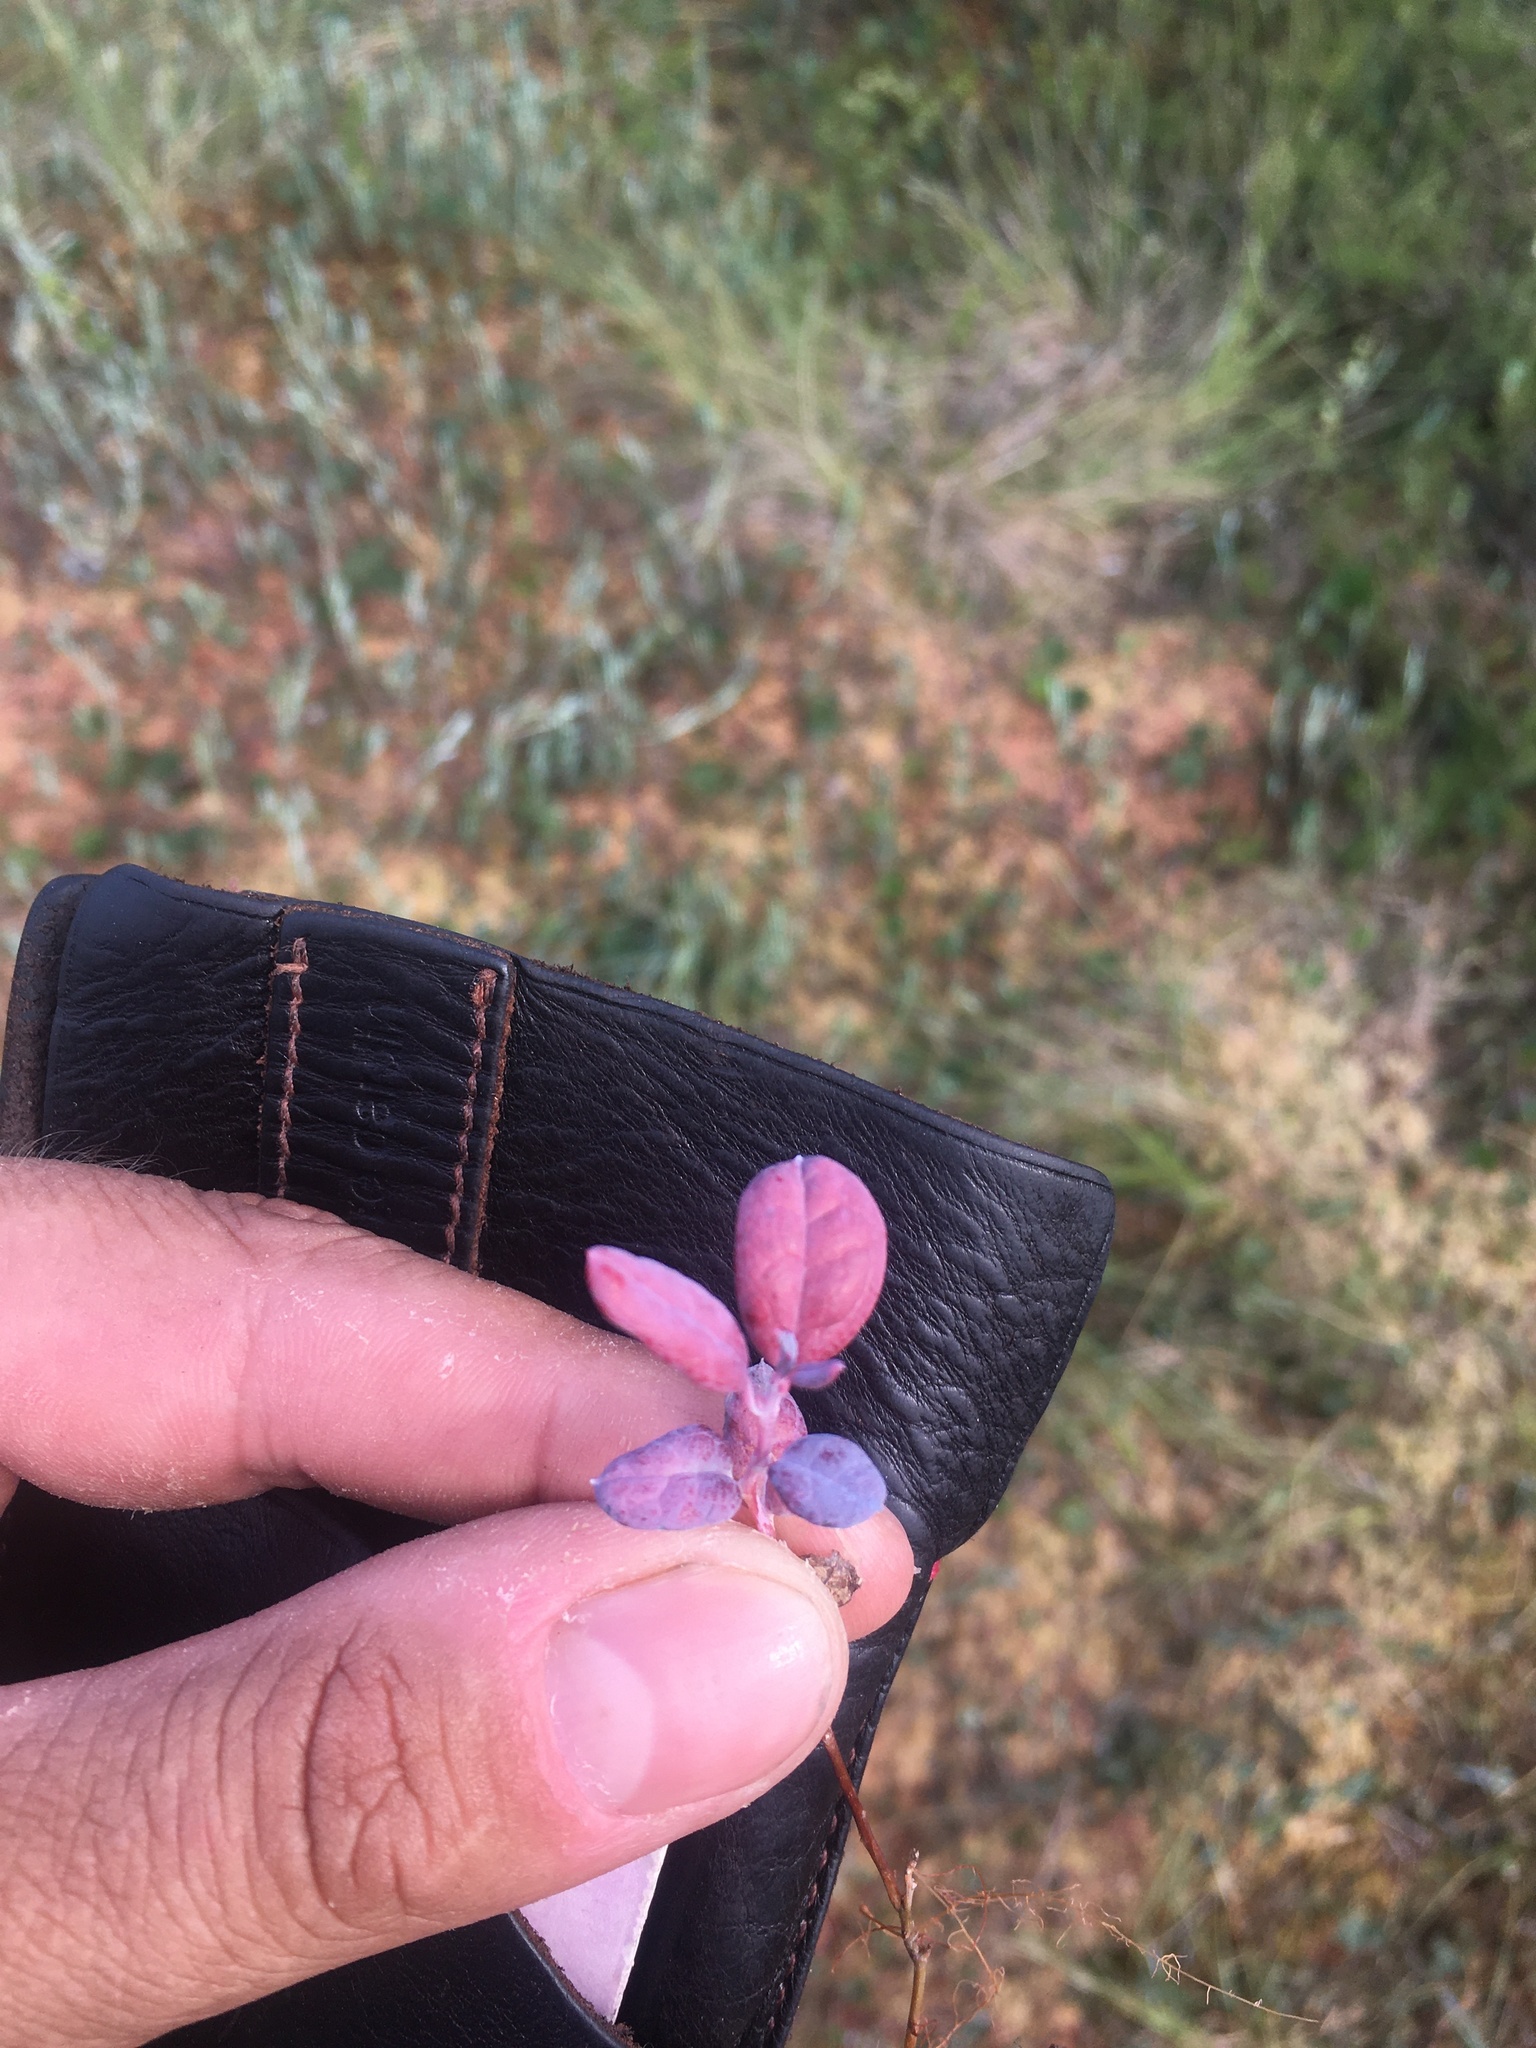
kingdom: Plantae
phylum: Tracheophyta
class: Magnoliopsida
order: Ericales
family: Ericaceae
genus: Vaccinium
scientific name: Vaccinium uliginosum
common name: Bog bilberry
